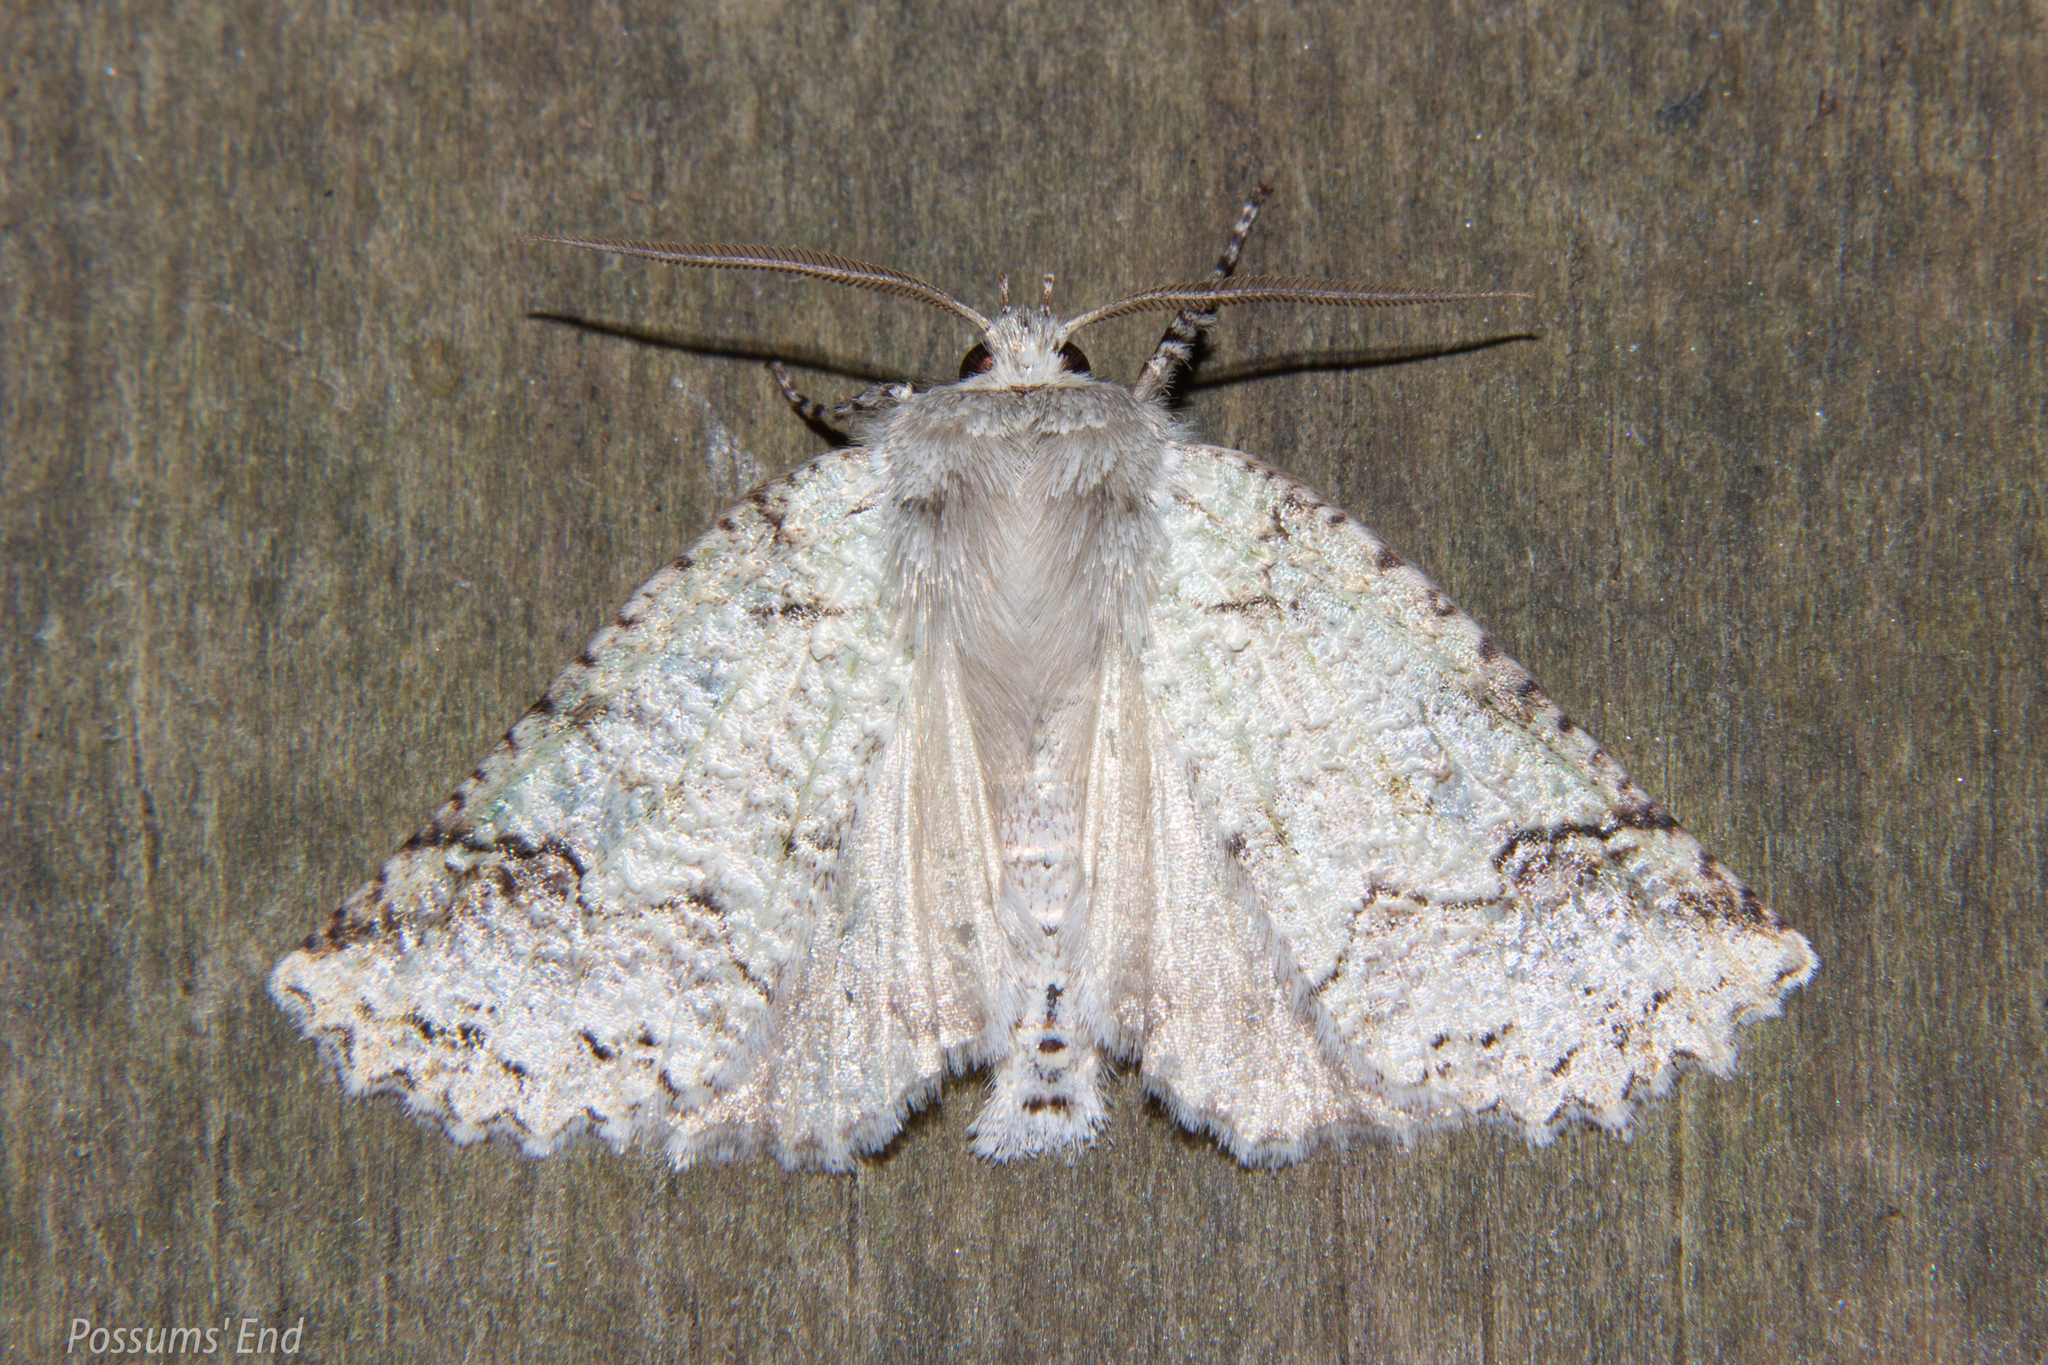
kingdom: Animalia
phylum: Arthropoda
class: Insecta
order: Lepidoptera
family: Geometridae
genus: Declana
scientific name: Declana floccosa
